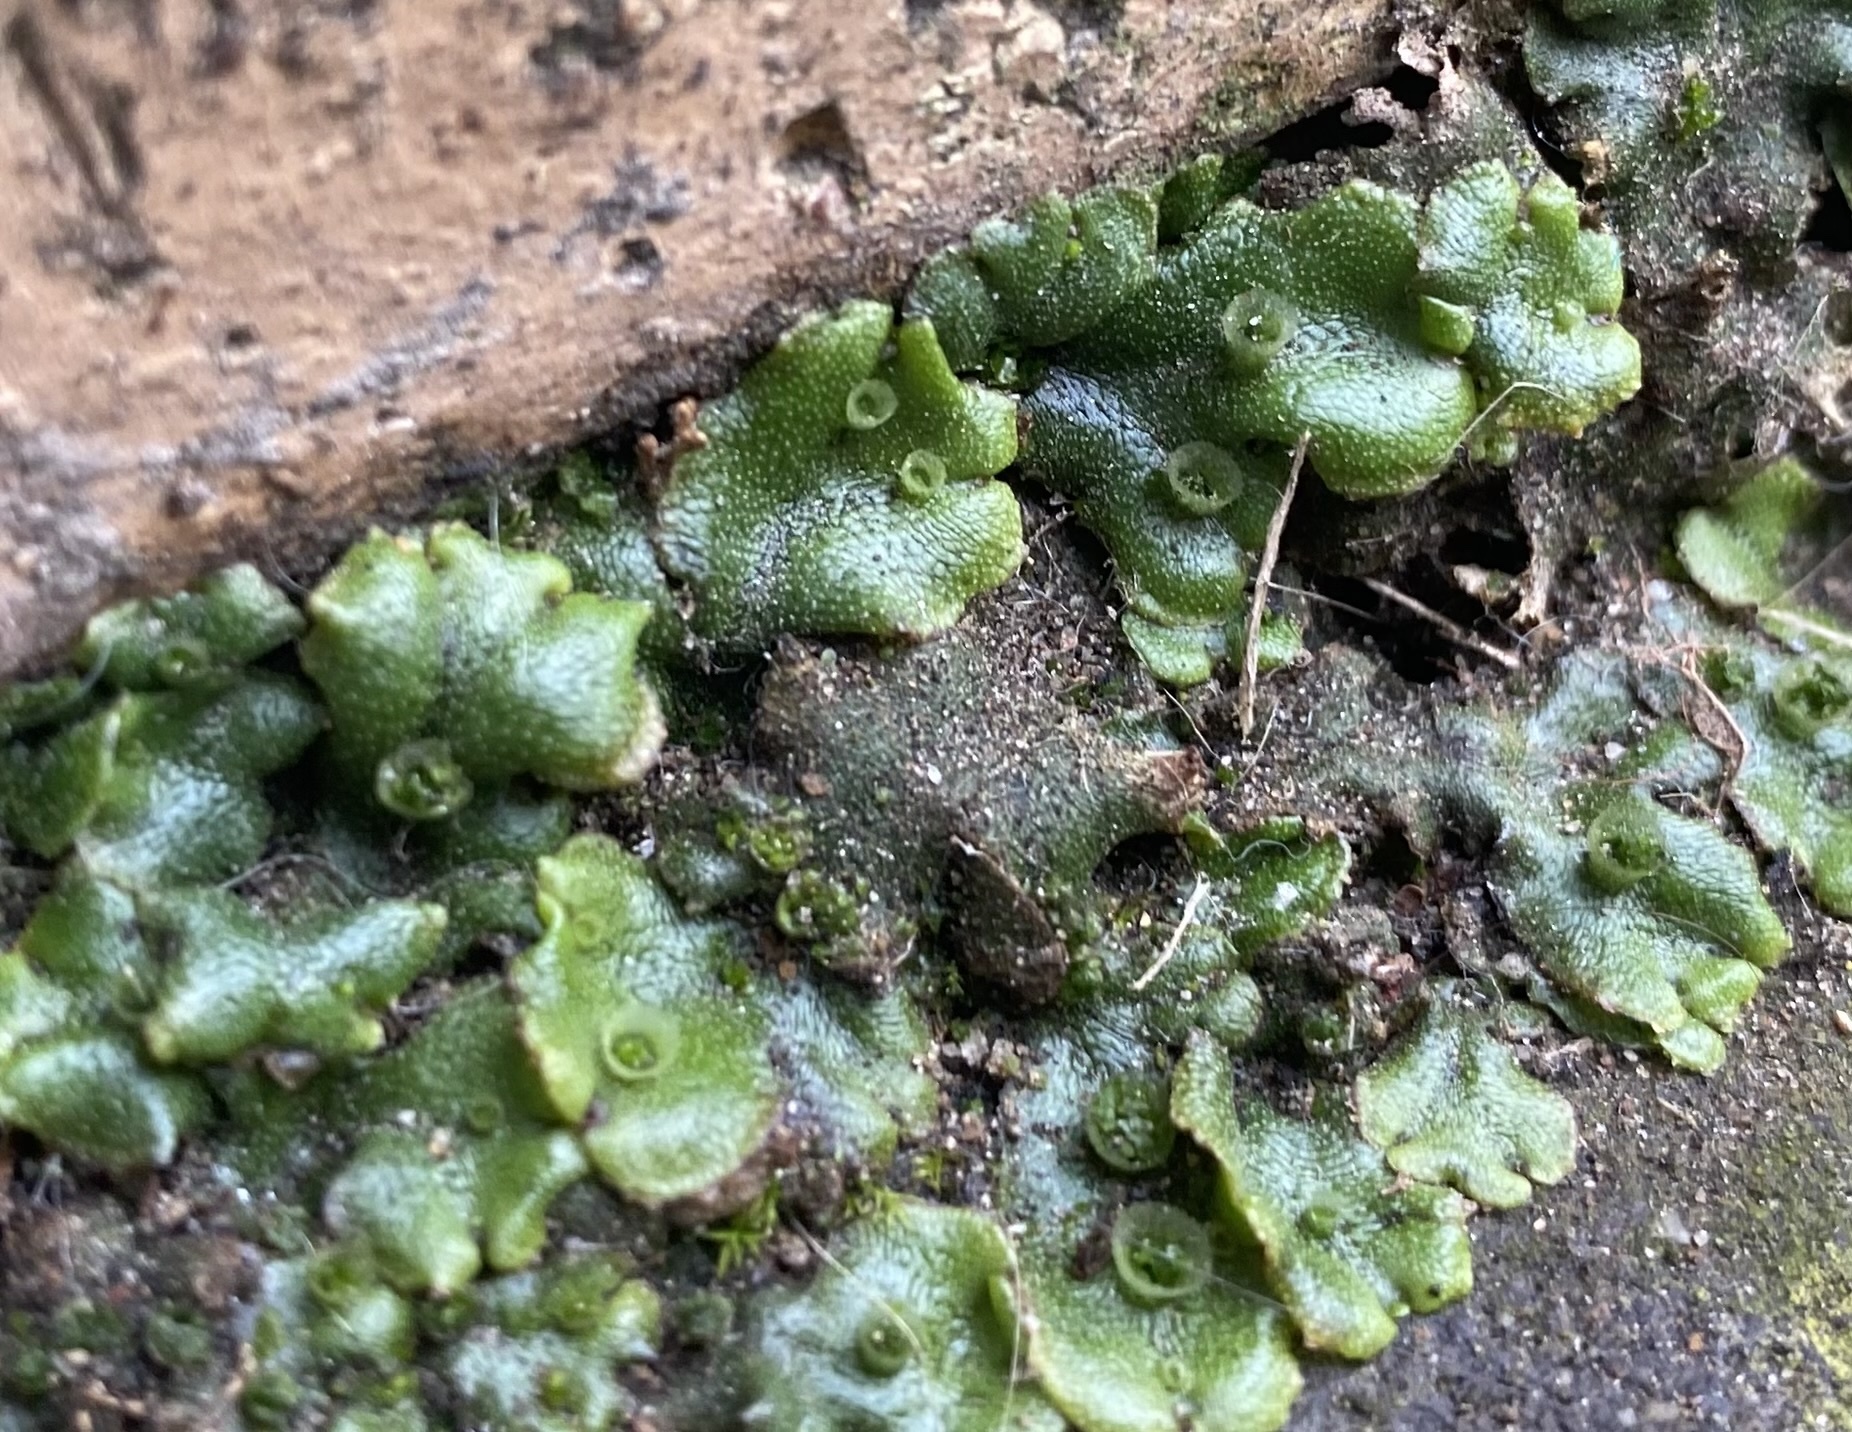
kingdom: Plantae
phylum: Marchantiophyta
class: Marchantiopsida
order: Marchantiales
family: Marchantiaceae
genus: Marchantia
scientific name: Marchantia polymorpha
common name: Common liverwort
